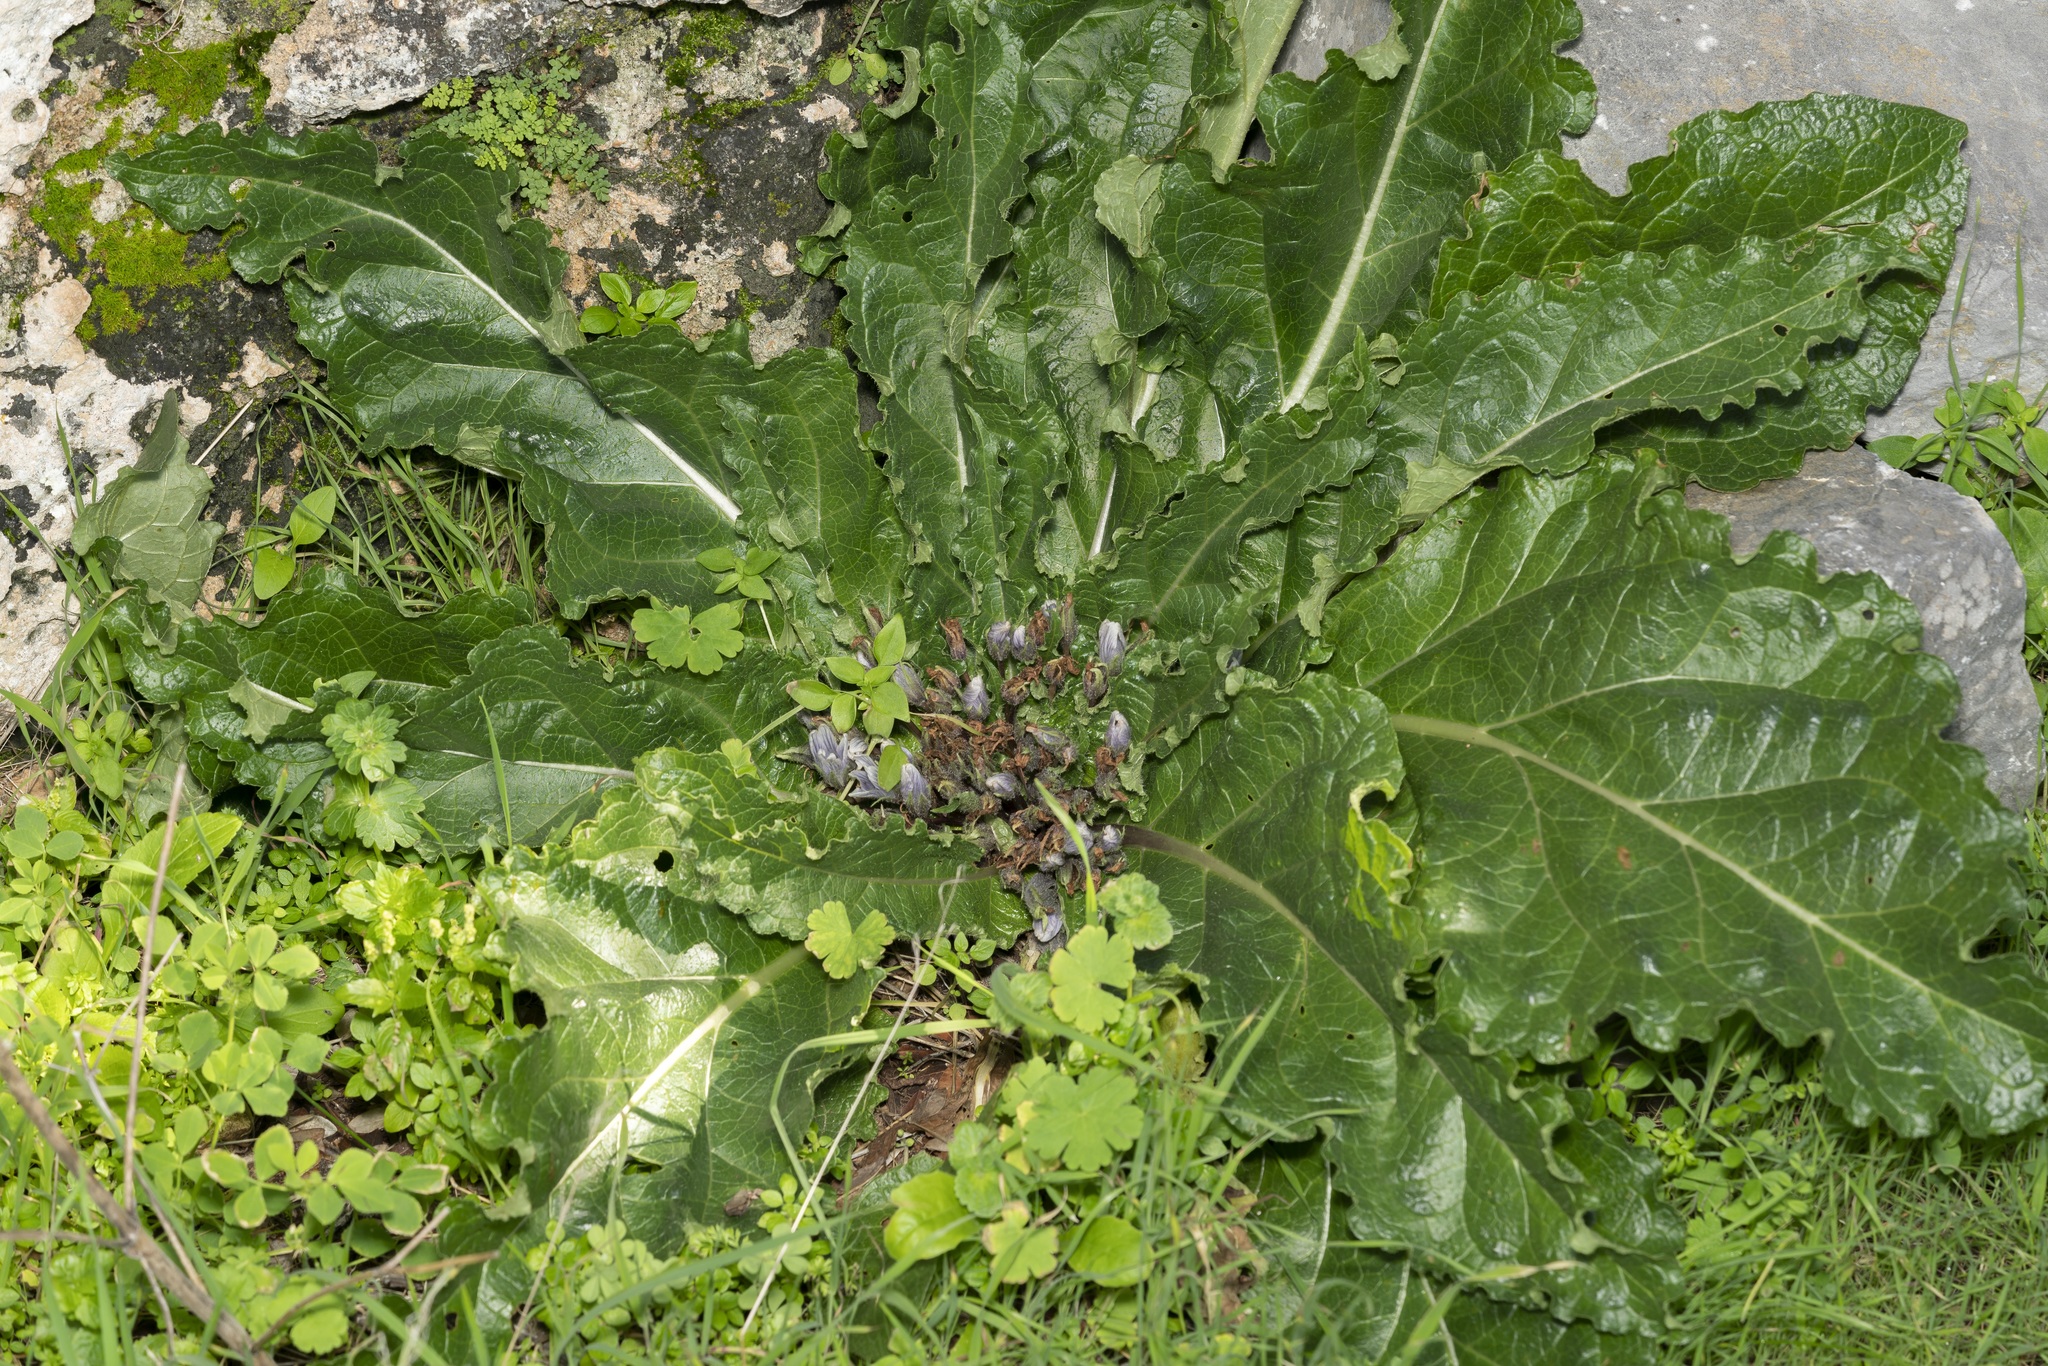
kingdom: Plantae
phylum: Tracheophyta
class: Magnoliopsida
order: Solanales
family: Solanaceae
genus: Mandragora
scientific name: Mandragora officinarum
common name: Mandrake
